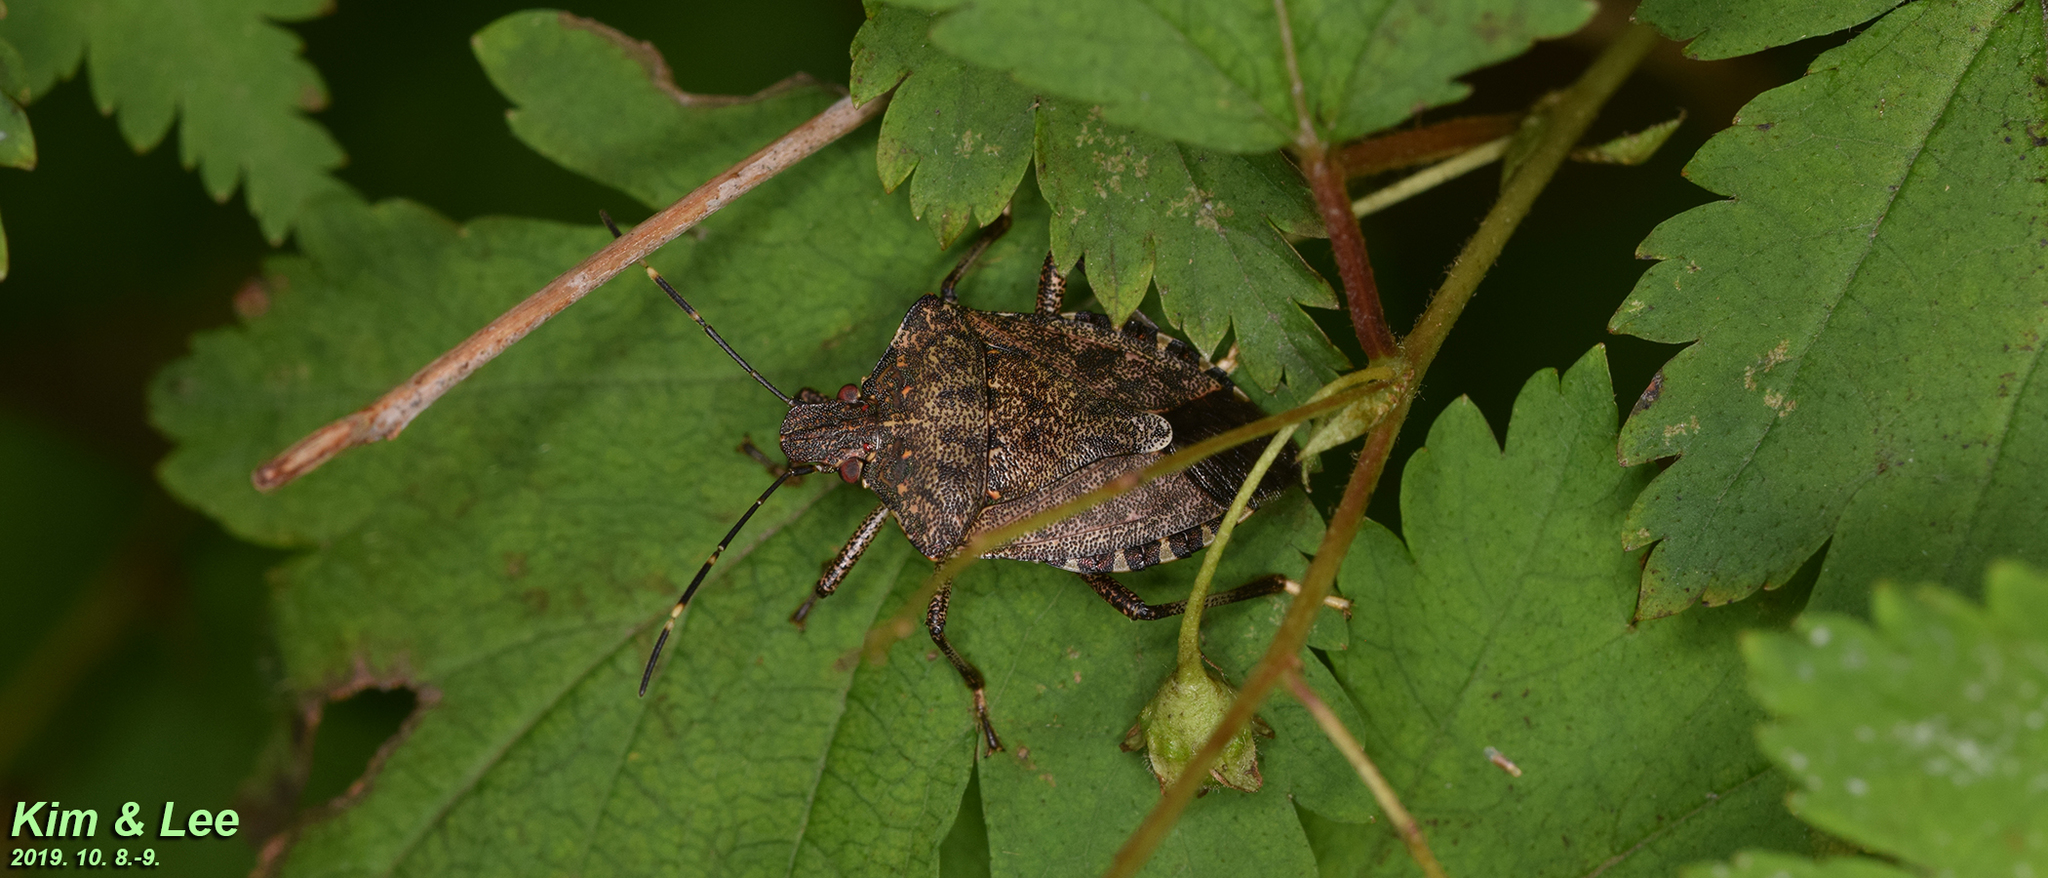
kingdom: Animalia
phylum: Arthropoda
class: Insecta
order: Hemiptera
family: Pentatomidae
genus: Halyomorpha
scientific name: Halyomorpha halys
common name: Brown marmorated stink bug
